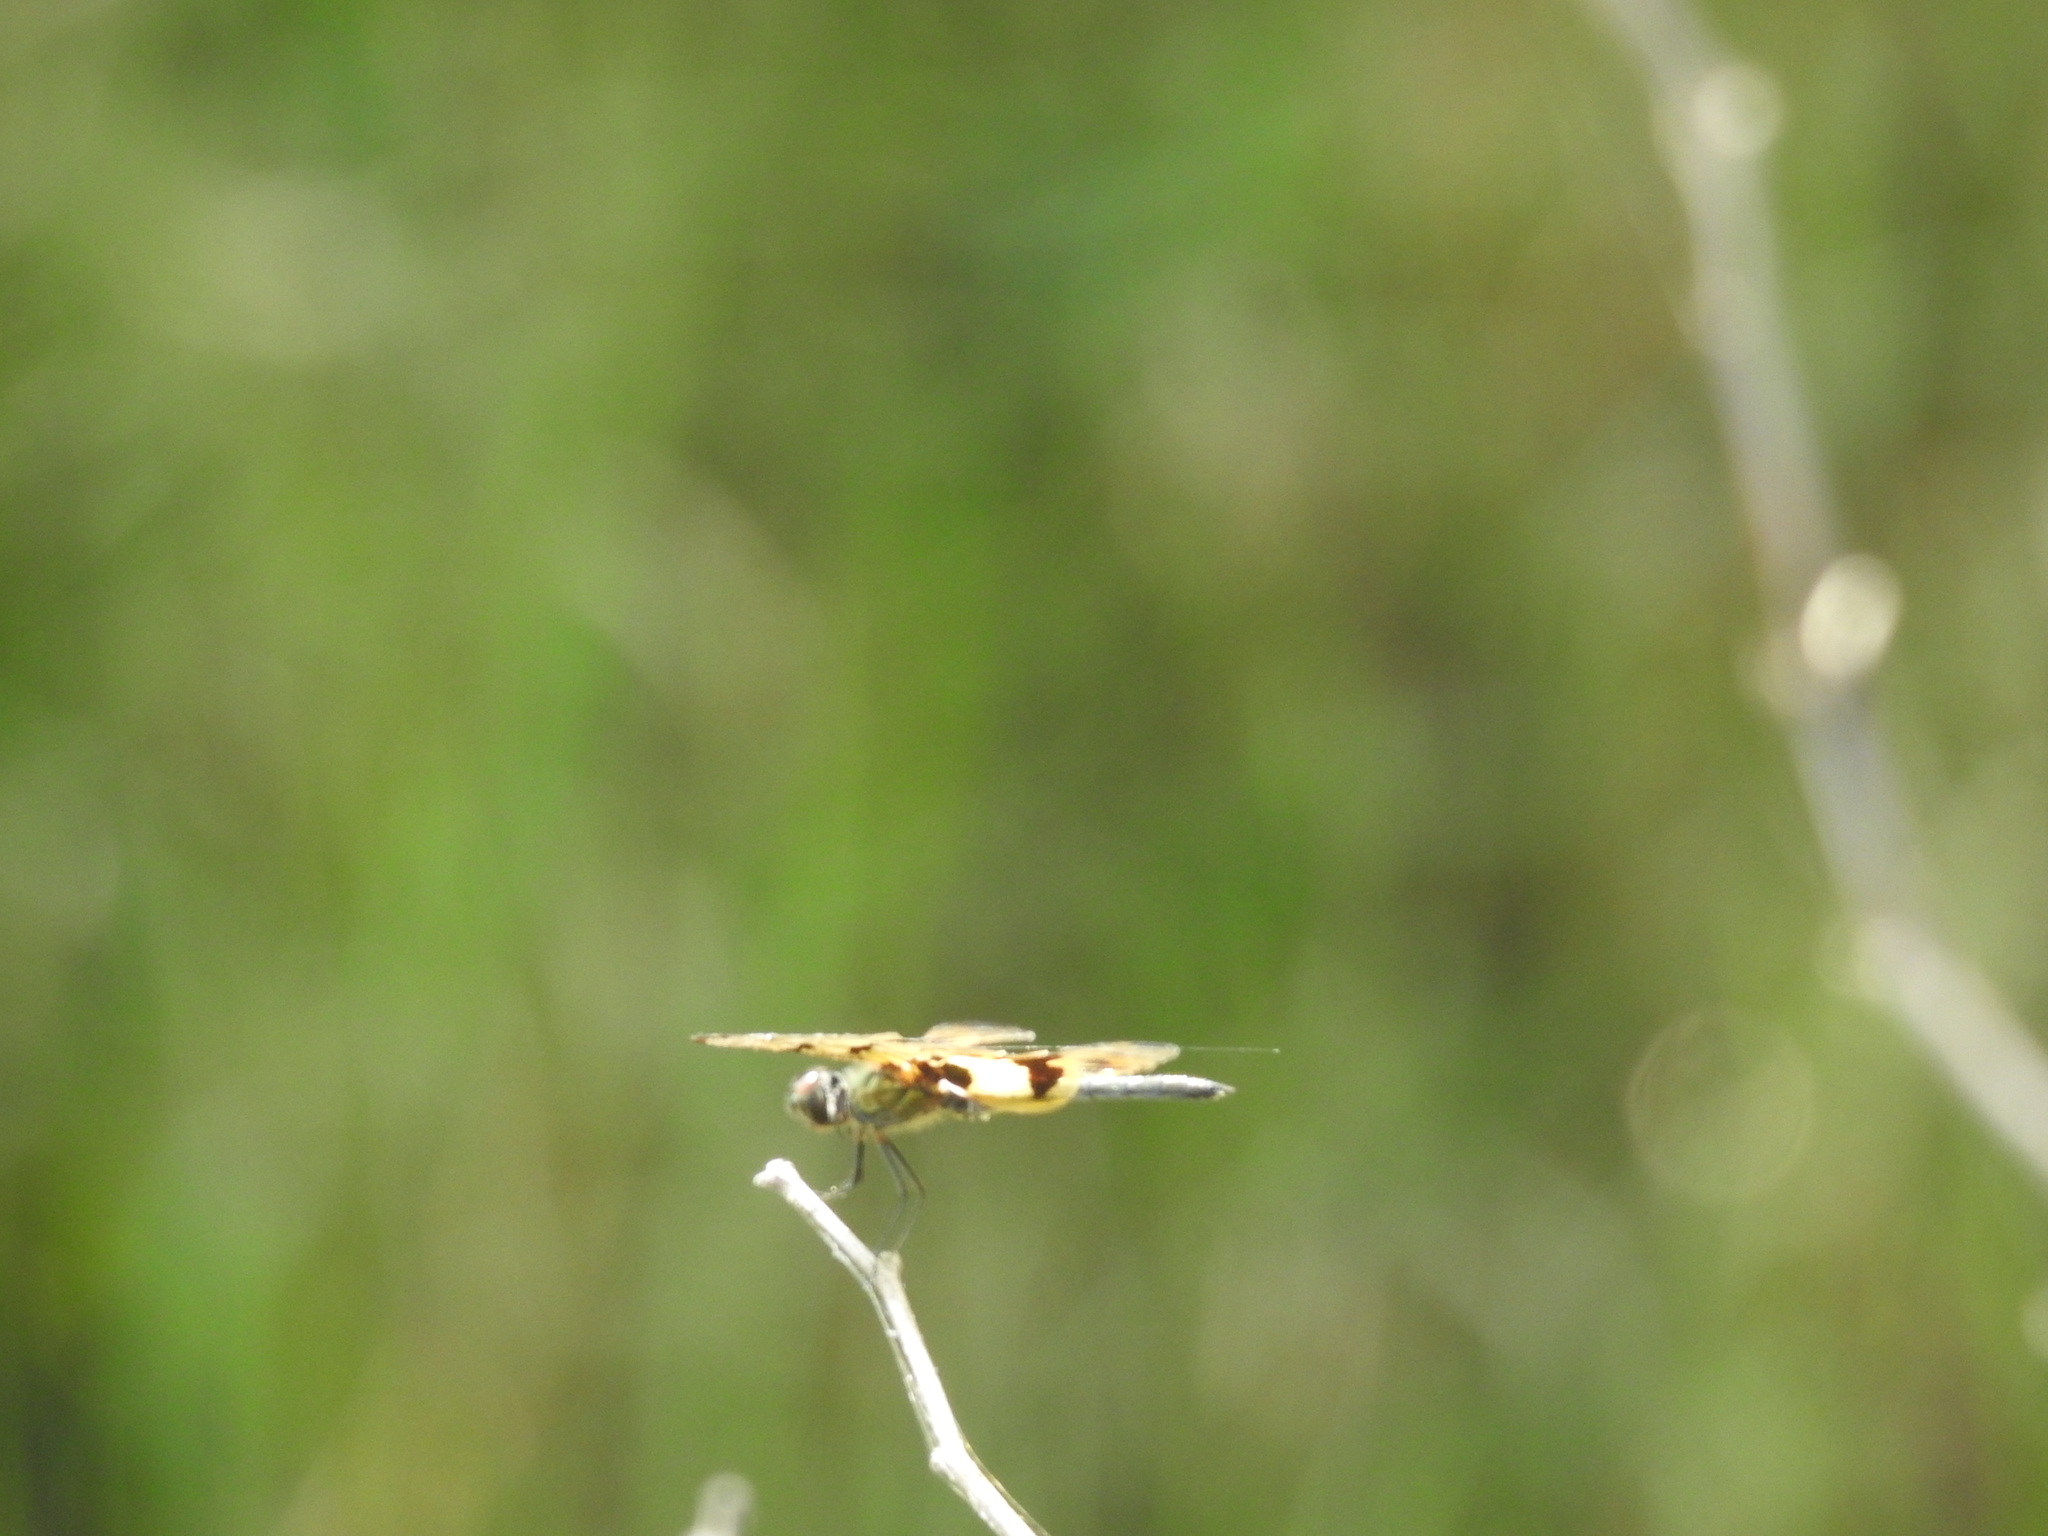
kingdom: Animalia
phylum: Arthropoda
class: Insecta
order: Odonata
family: Libellulidae
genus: Rhyothemis
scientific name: Rhyothemis variegata
